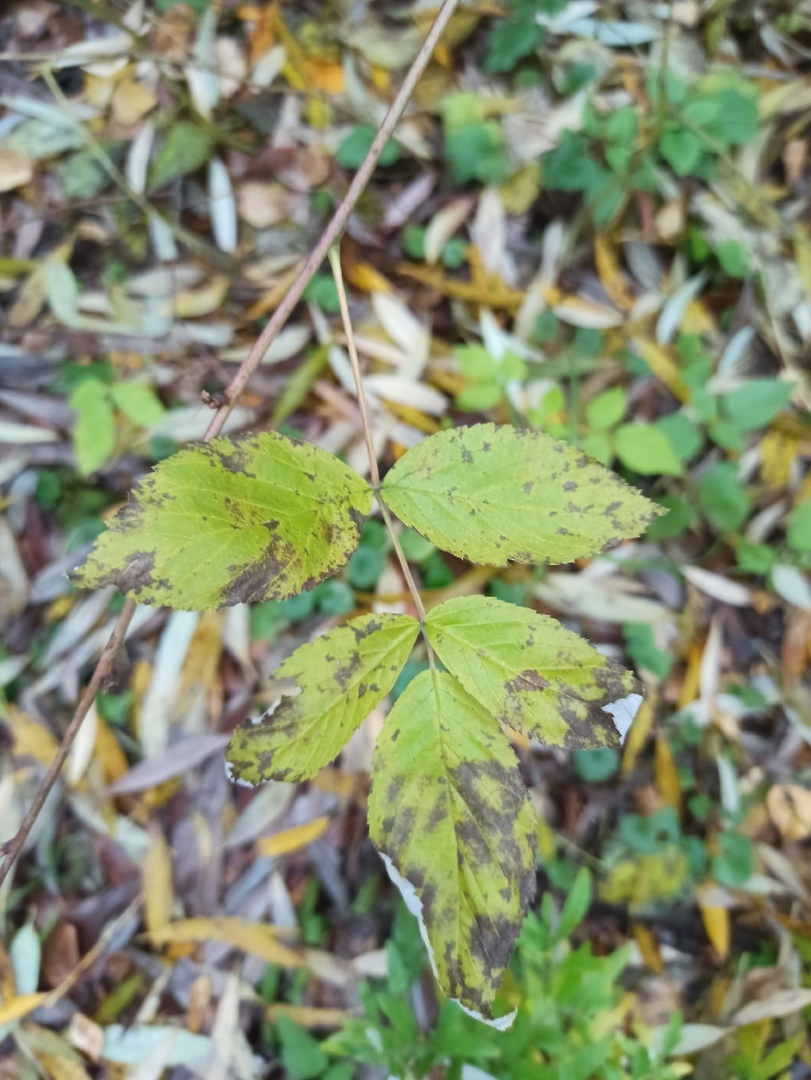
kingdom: Plantae
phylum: Tracheophyta
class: Magnoliopsida
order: Rosales
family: Rosaceae
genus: Rubus
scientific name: Rubus idaeus
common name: Raspberry
